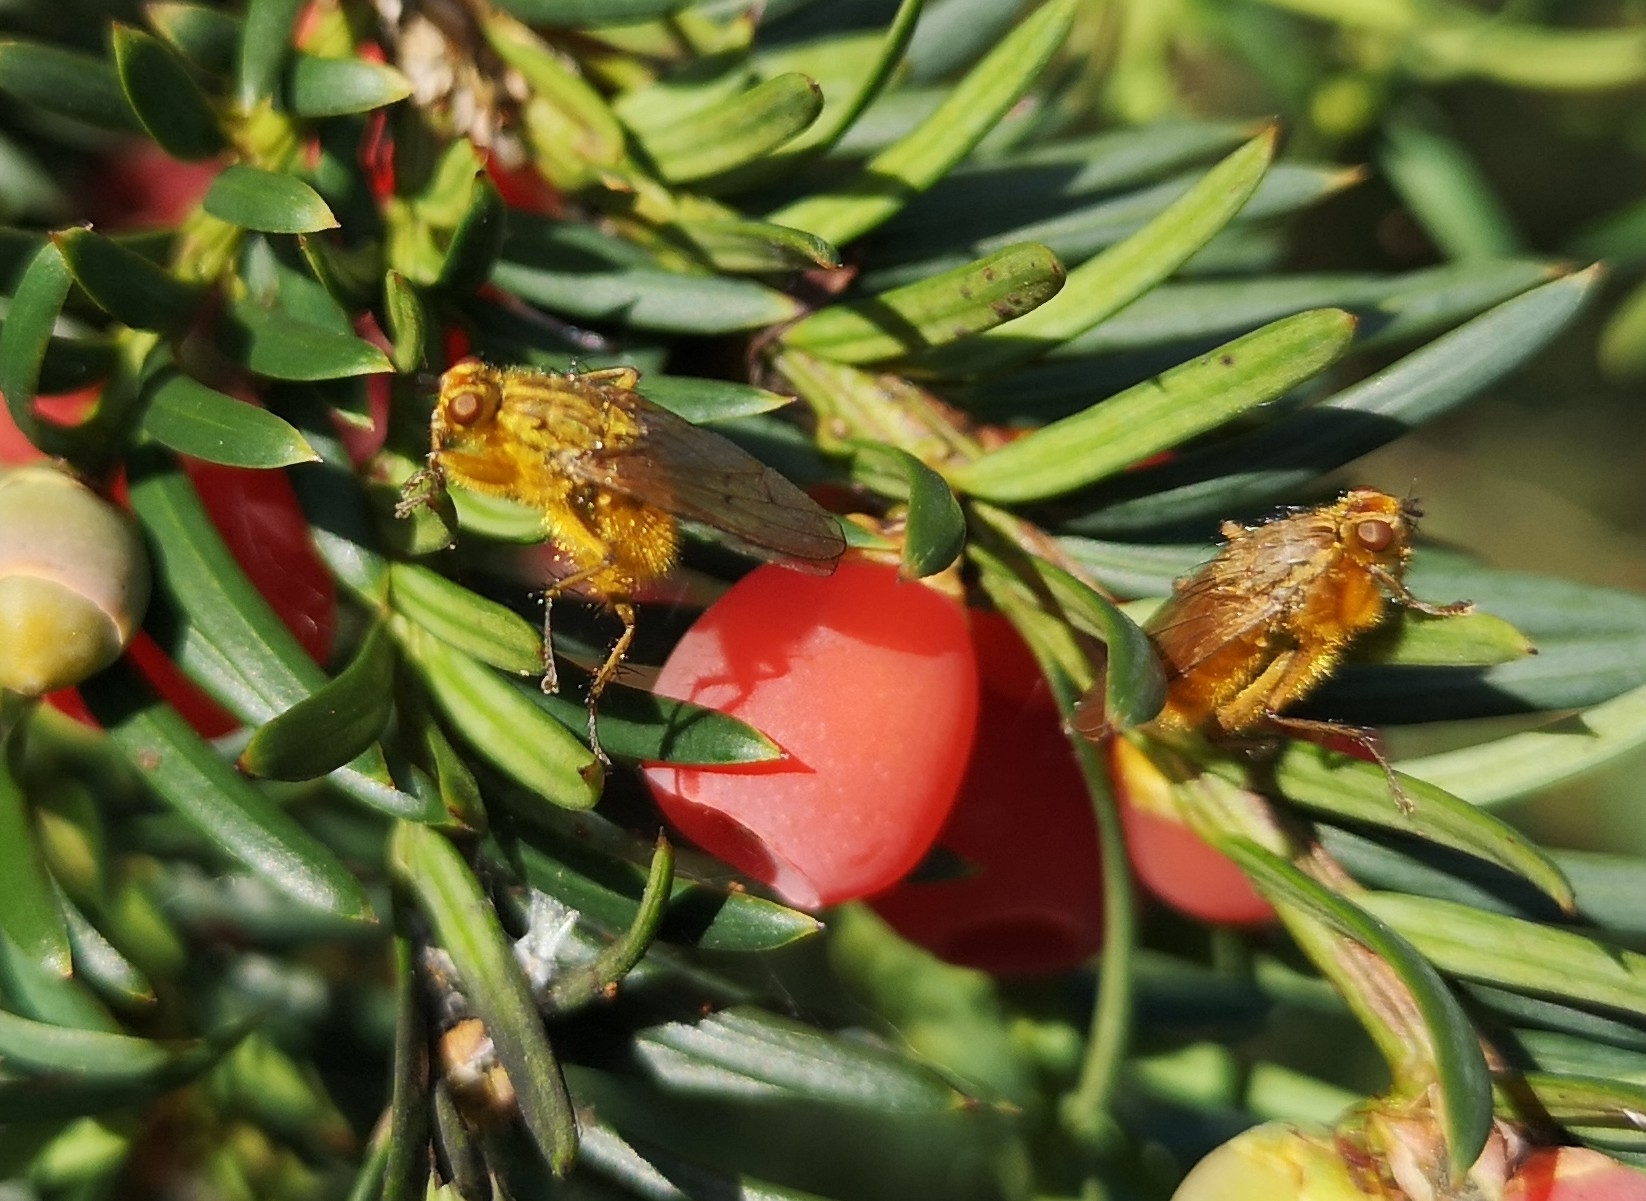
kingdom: Animalia
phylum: Arthropoda
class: Insecta
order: Diptera
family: Scathophagidae
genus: Scathophaga
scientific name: Scathophaga stercoraria
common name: Yellow dung fly
